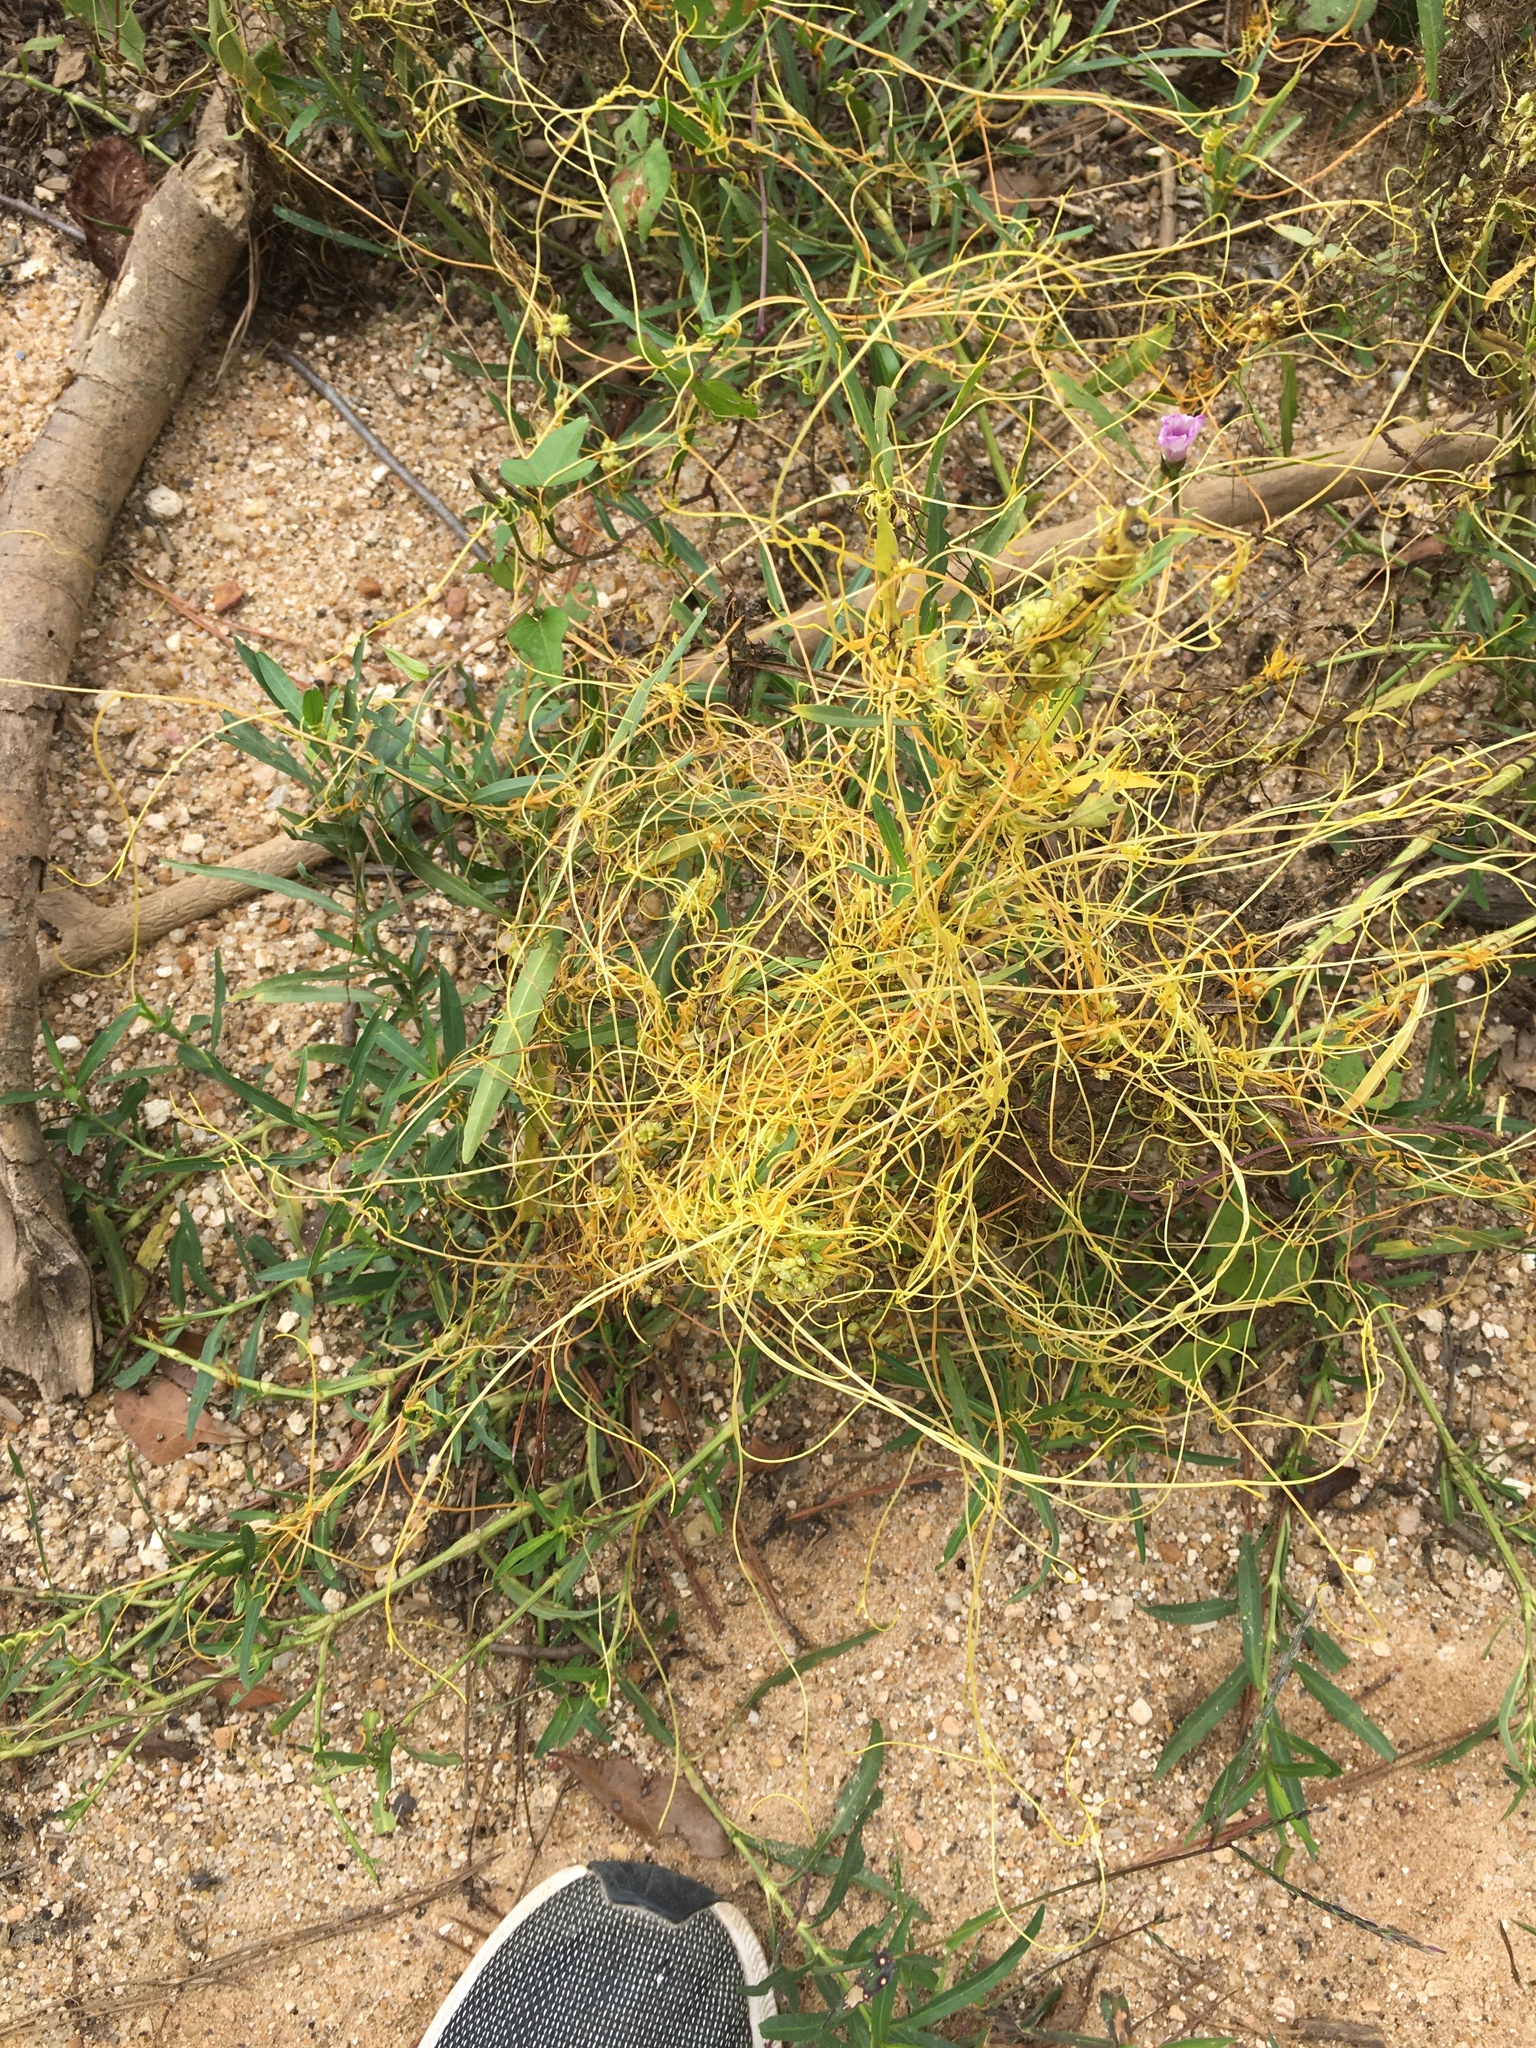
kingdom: Plantae
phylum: Tracheophyta
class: Magnoliopsida
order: Solanales
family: Convolvulaceae
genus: Cuscuta
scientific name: Cuscuta
